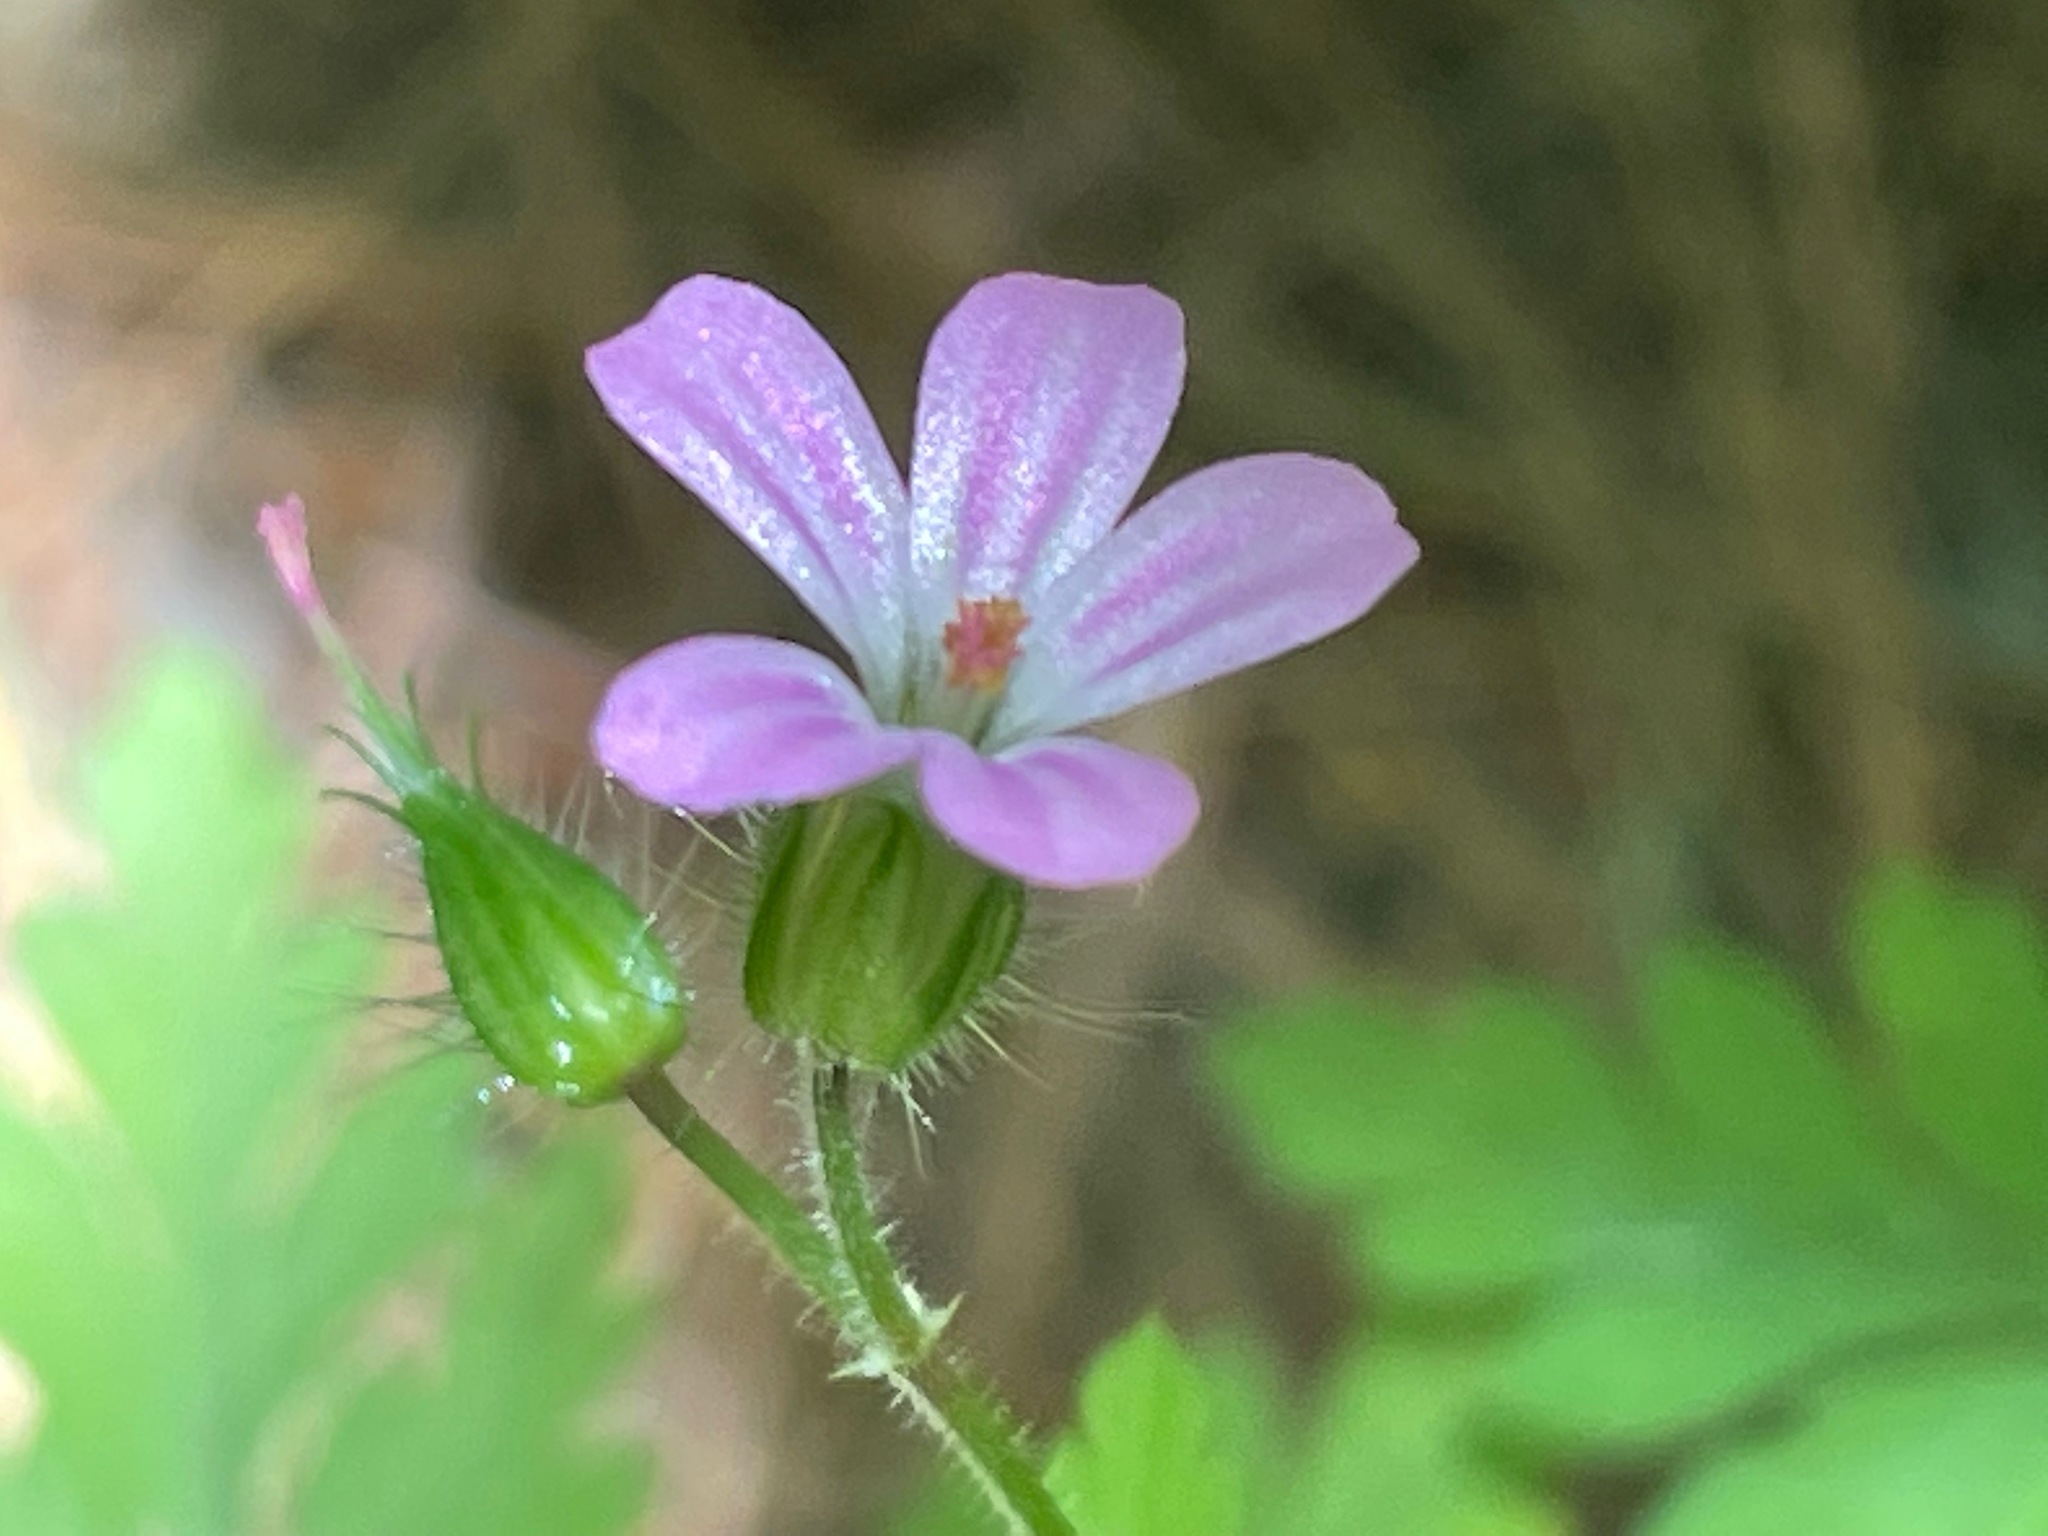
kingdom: Plantae
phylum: Tracheophyta
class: Magnoliopsida
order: Geraniales
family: Geraniaceae
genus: Geranium
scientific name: Geranium robertianum
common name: Herb-robert
